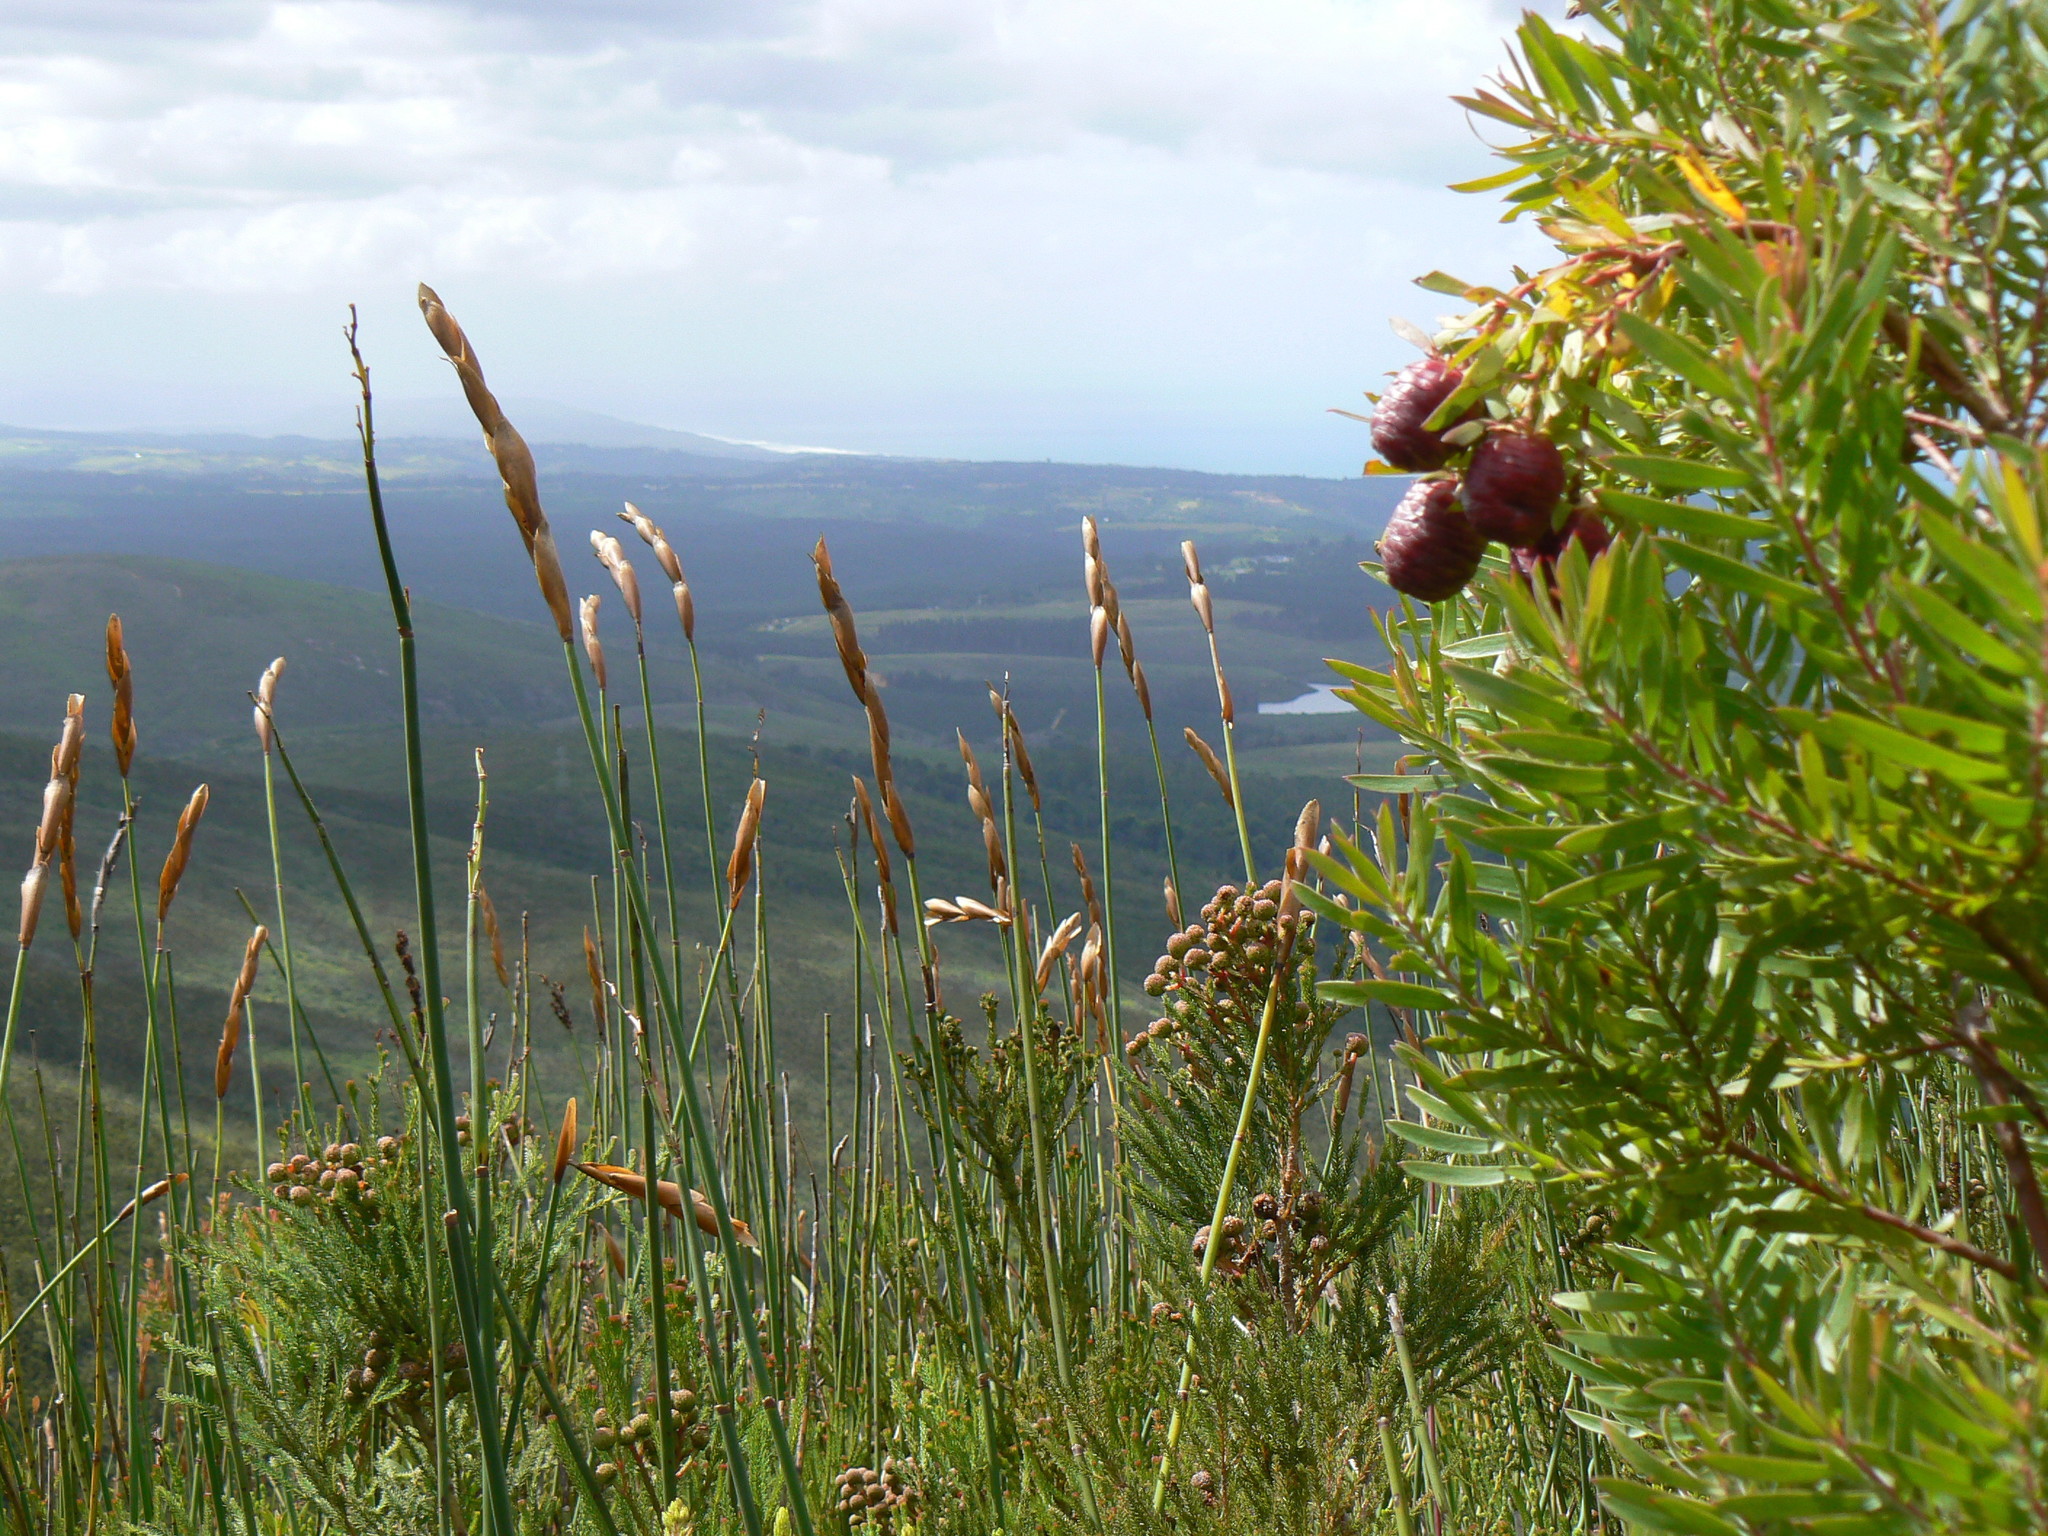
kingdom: Plantae
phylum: Tracheophyta
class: Magnoliopsida
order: Proteales
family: Proteaceae
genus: Leucadendron
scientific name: Leucadendron conicum
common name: Garden route conebush
